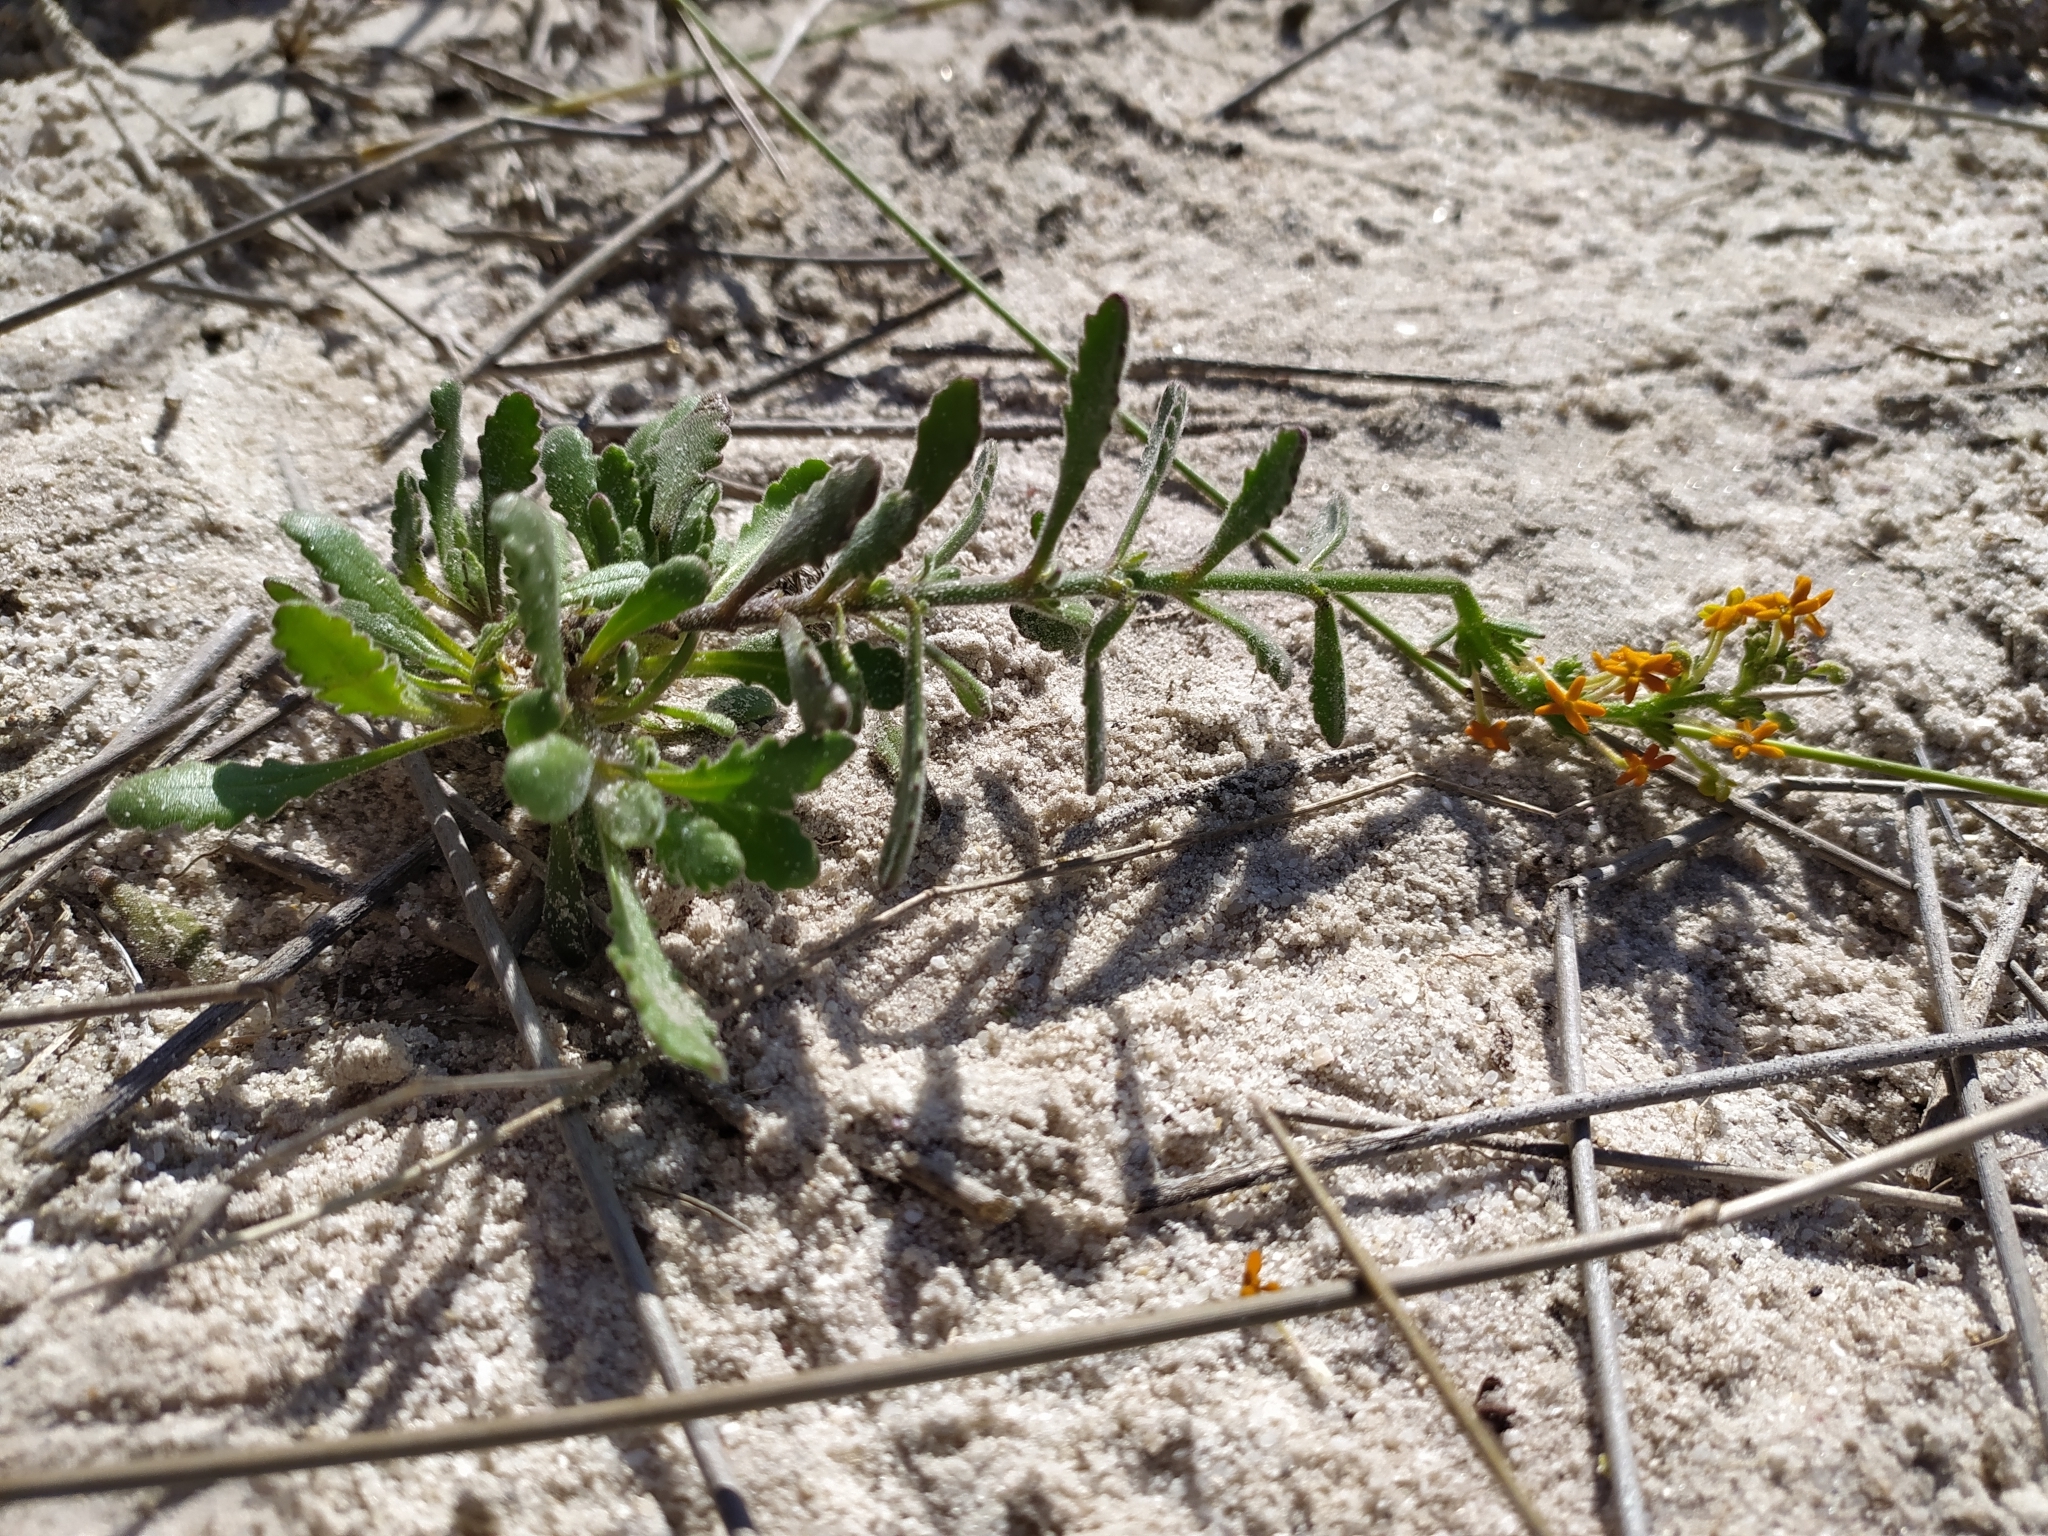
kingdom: Plantae
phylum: Tracheophyta
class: Magnoliopsida
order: Lamiales
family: Scrophulariaceae
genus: Manulea
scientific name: Manulea rubra
